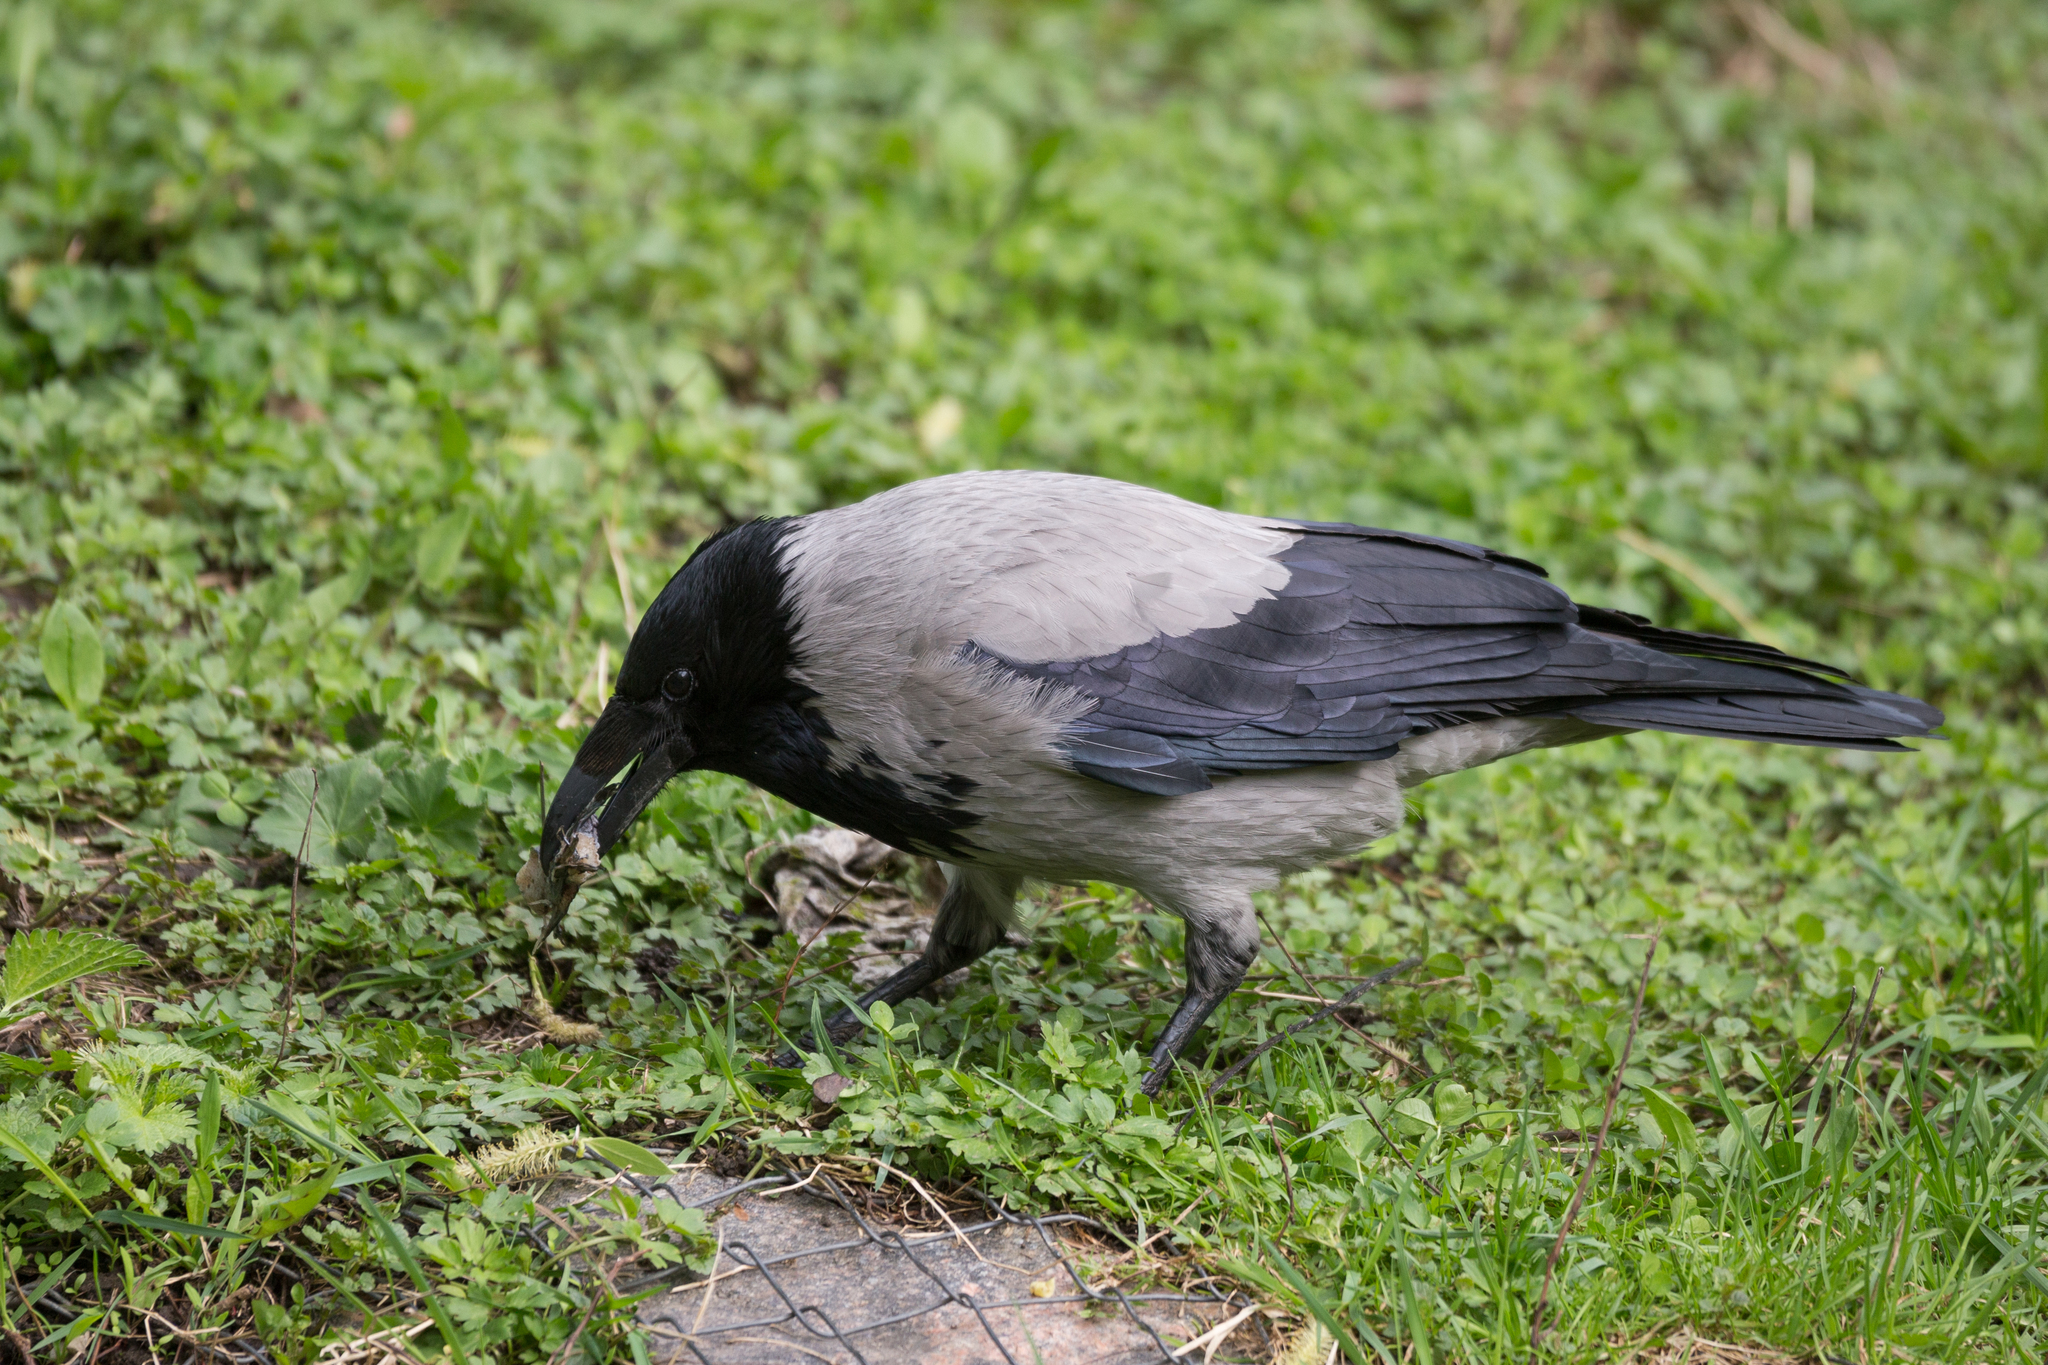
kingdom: Animalia
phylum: Chordata
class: Aves
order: Passeriformes
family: Corvidae
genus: Corvus
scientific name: Corvus cornix
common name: Hooded crow
